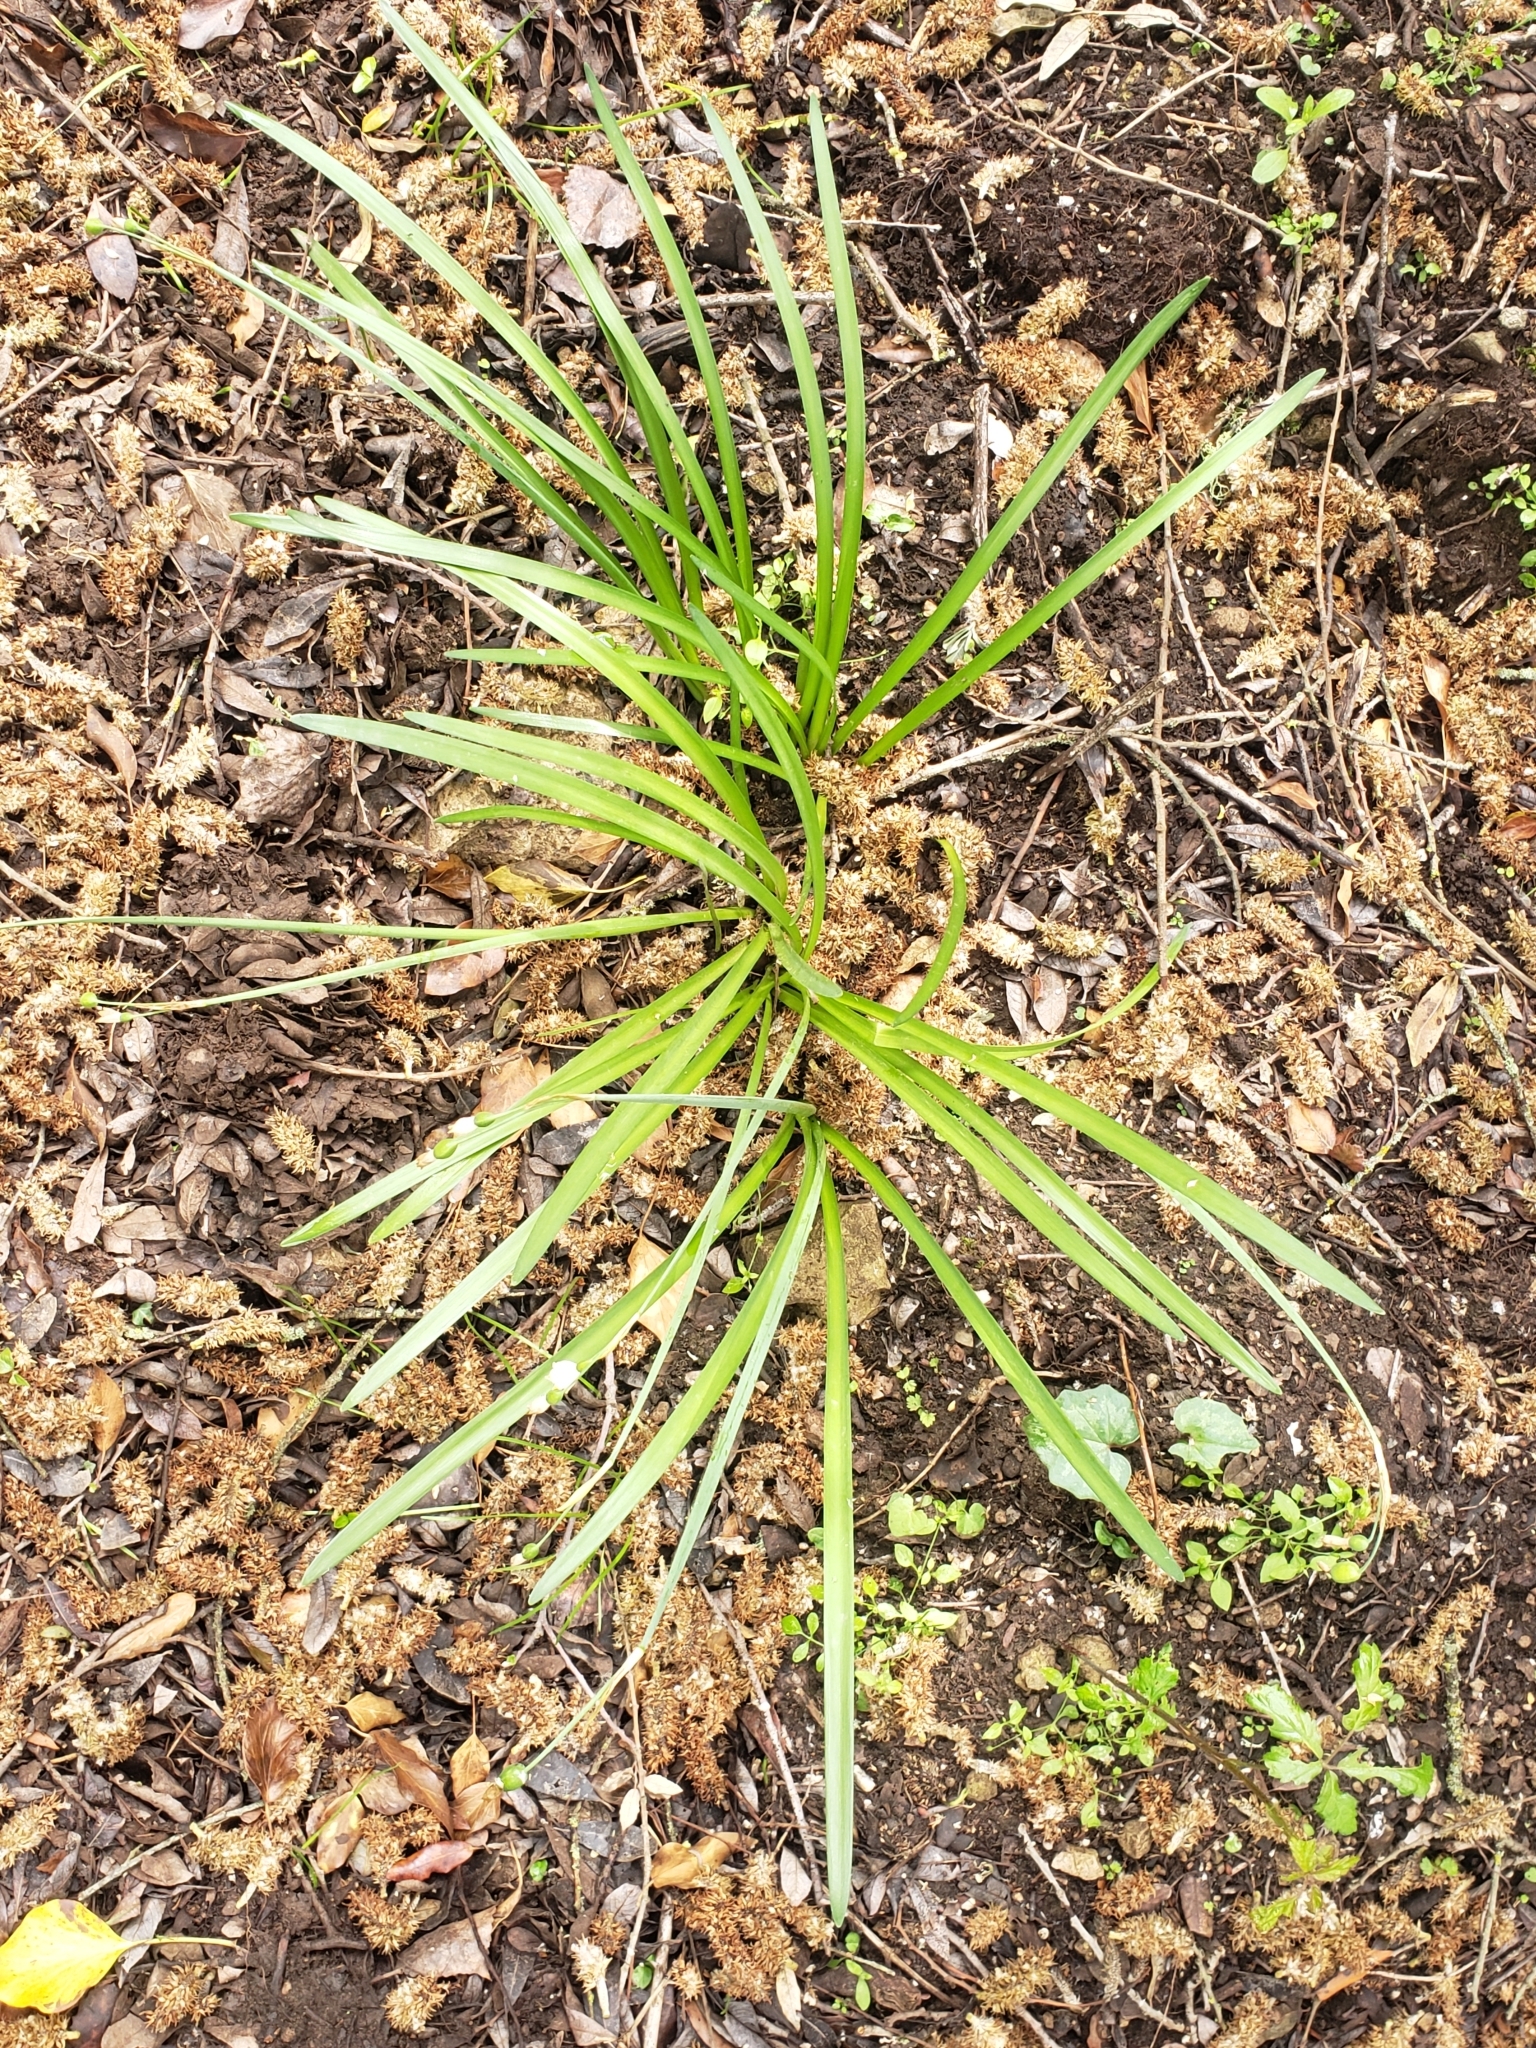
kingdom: Plantae
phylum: Tracheophyta
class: Liliopsida
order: Asparagales
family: Amaryllidaceae
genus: Leucojum
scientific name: Leucojum aestivum
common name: Summer snowflake
